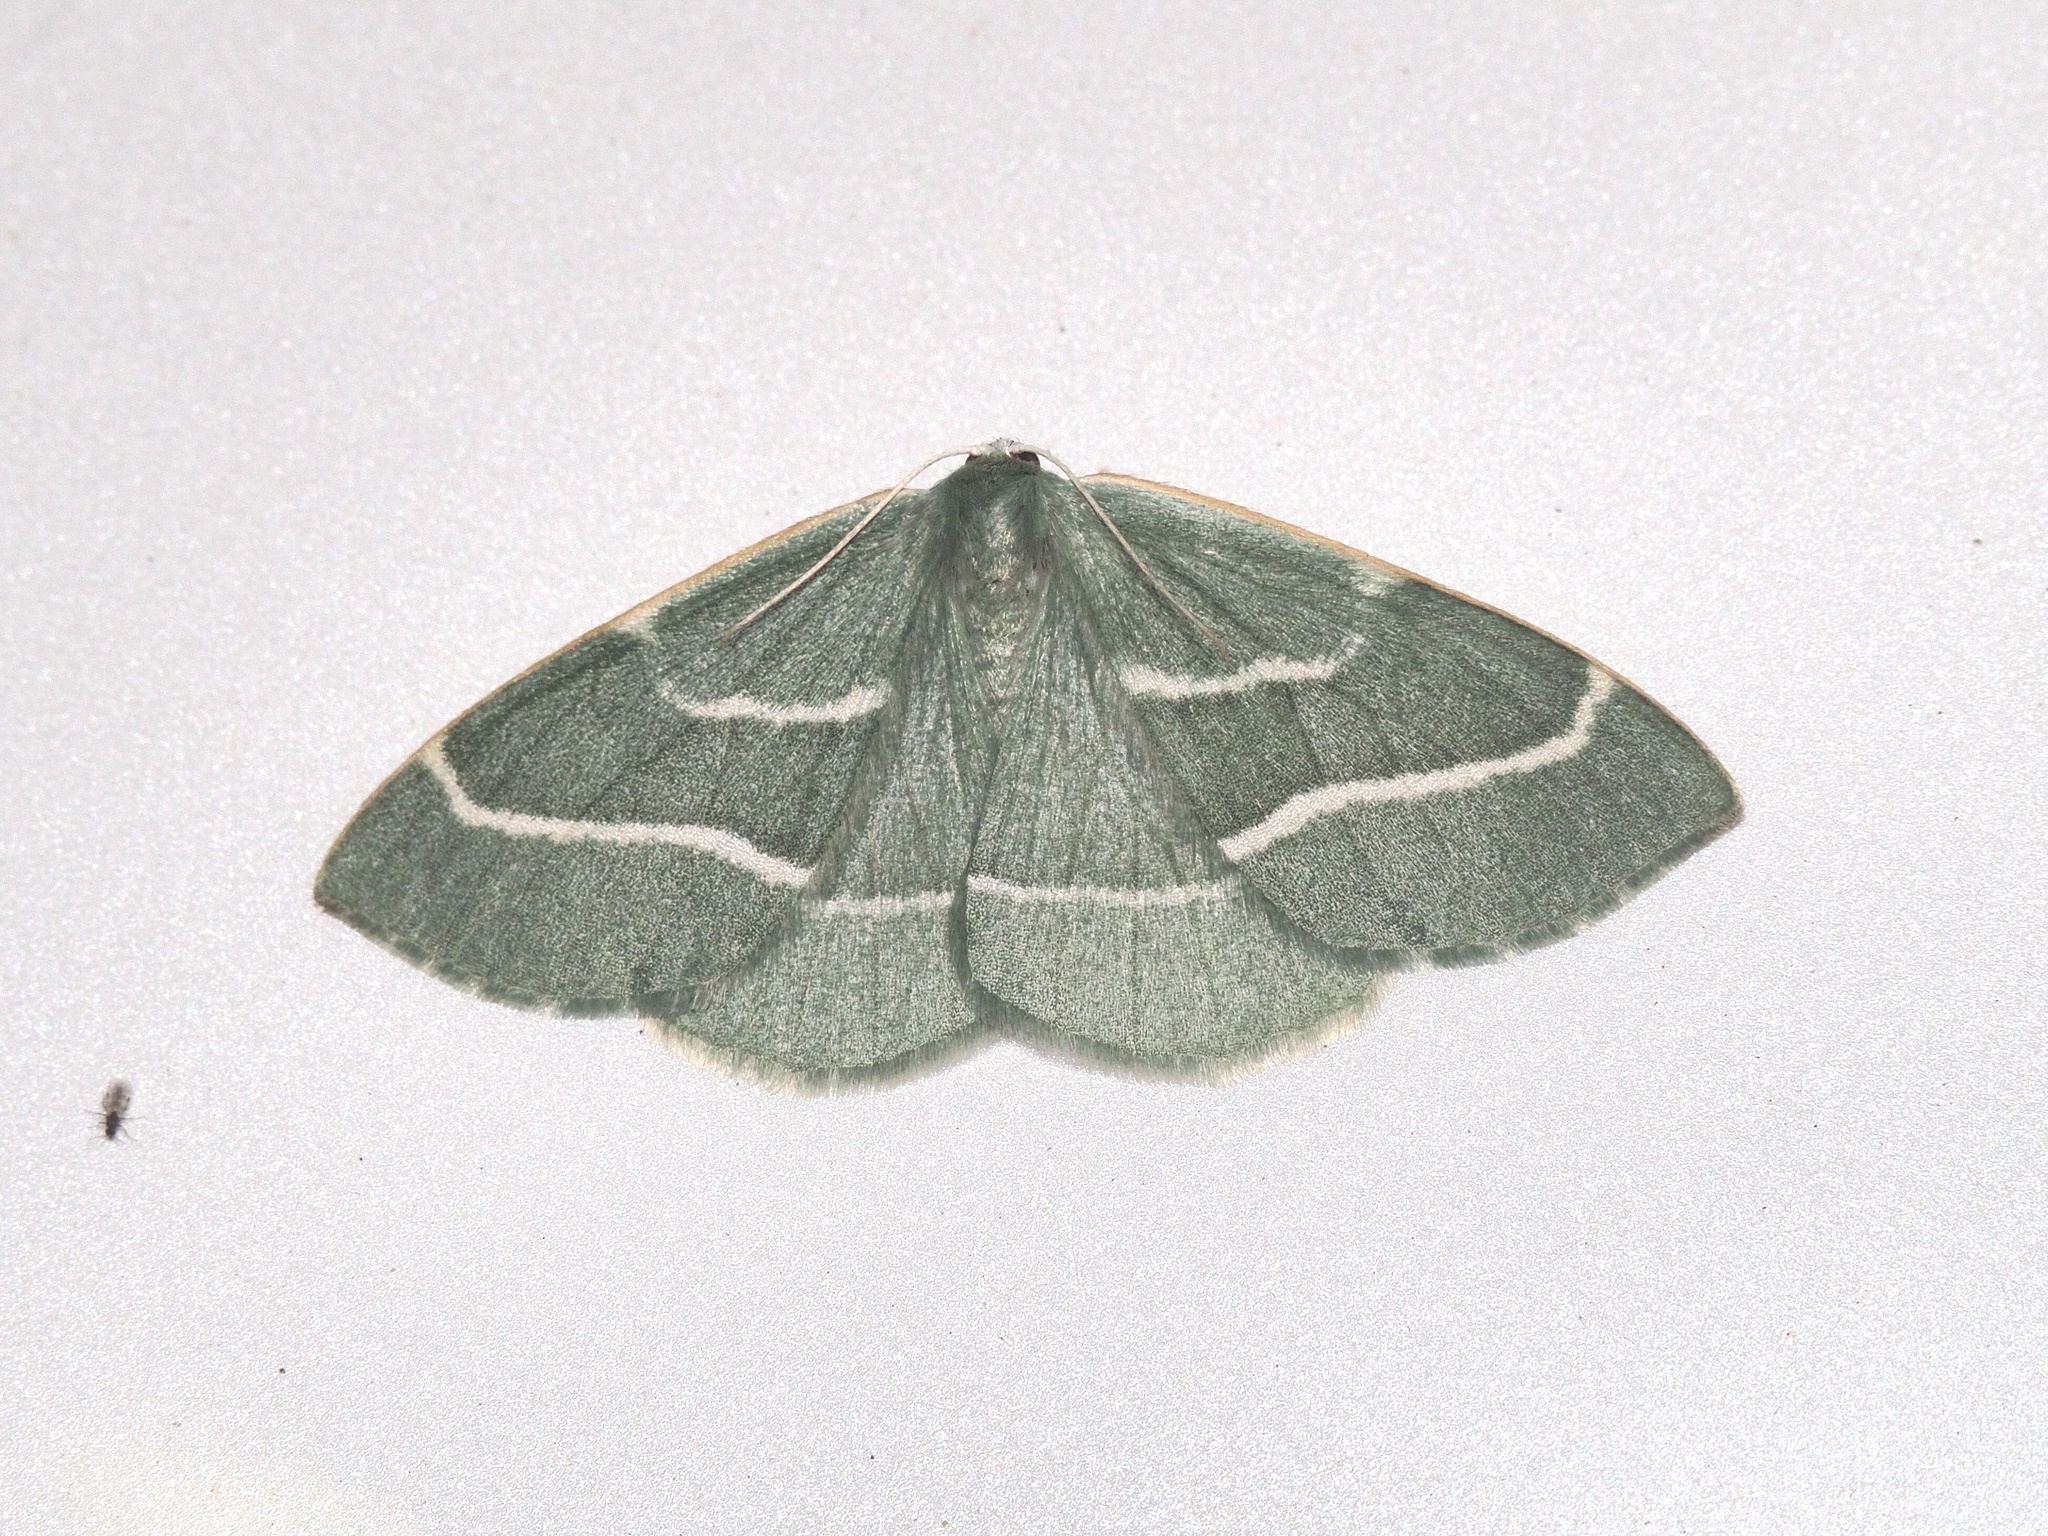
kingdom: Animalia
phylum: Arthropoda
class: Insecta
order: Lepidoptera
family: Geometridae
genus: Hylaea
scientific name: Hylaea fasciaria
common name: Barred red
